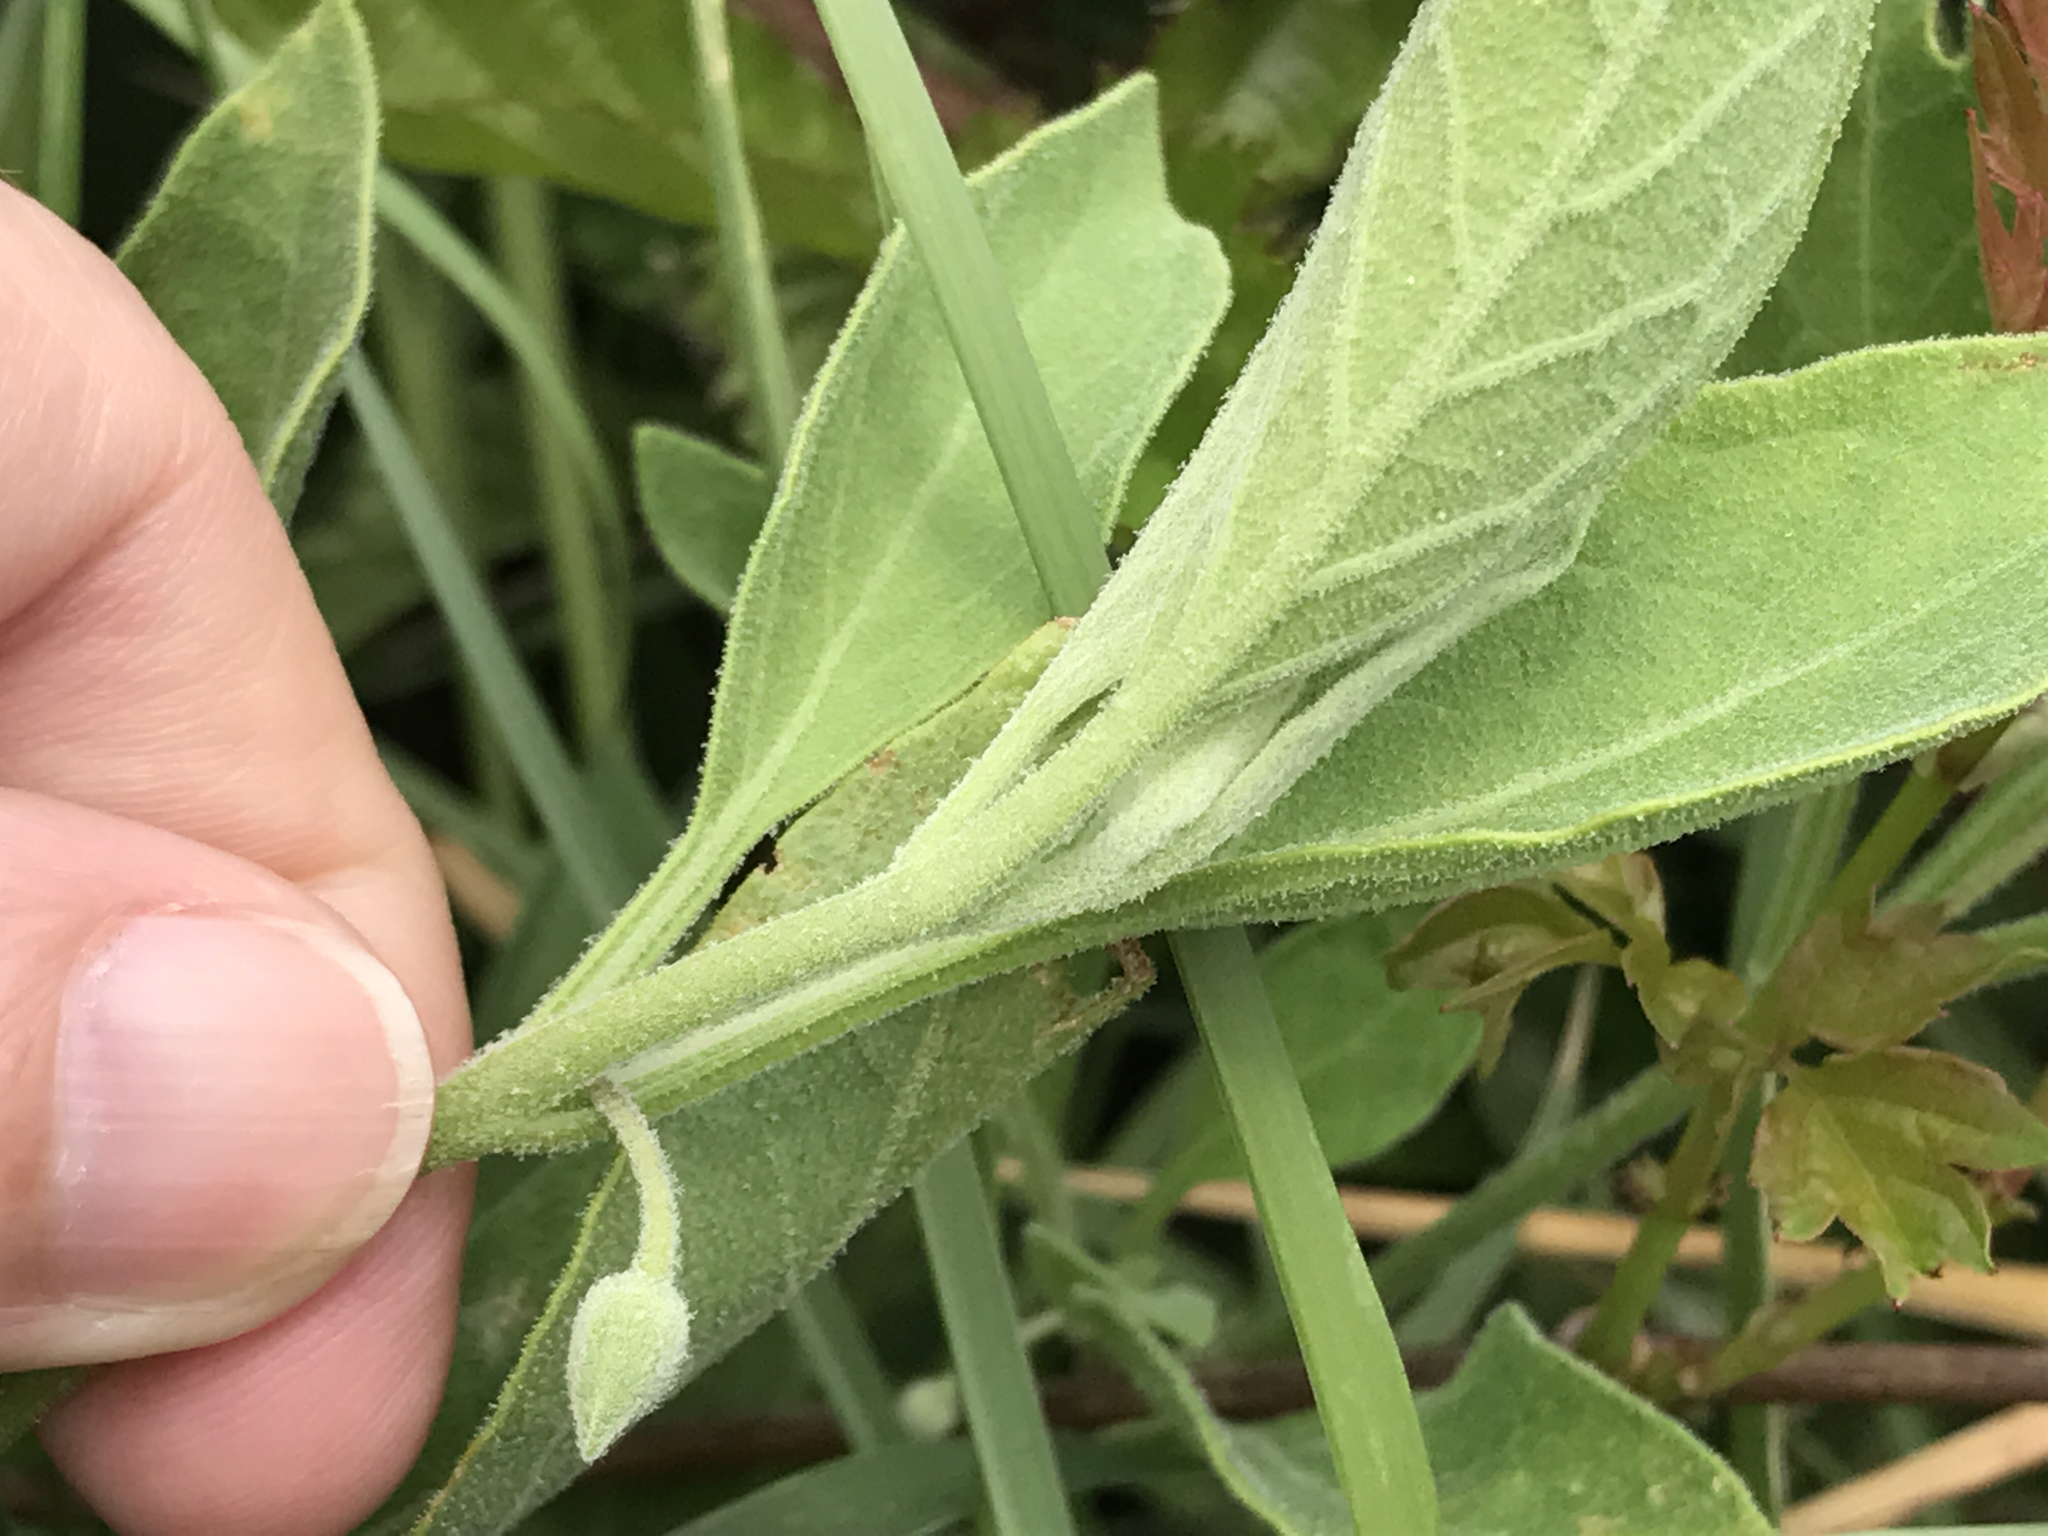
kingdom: Plantae
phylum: Tracheophyta
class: Magnoliopsida
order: Solanales
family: Solanaceae
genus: Physalis
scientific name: Physalis cinerascens
